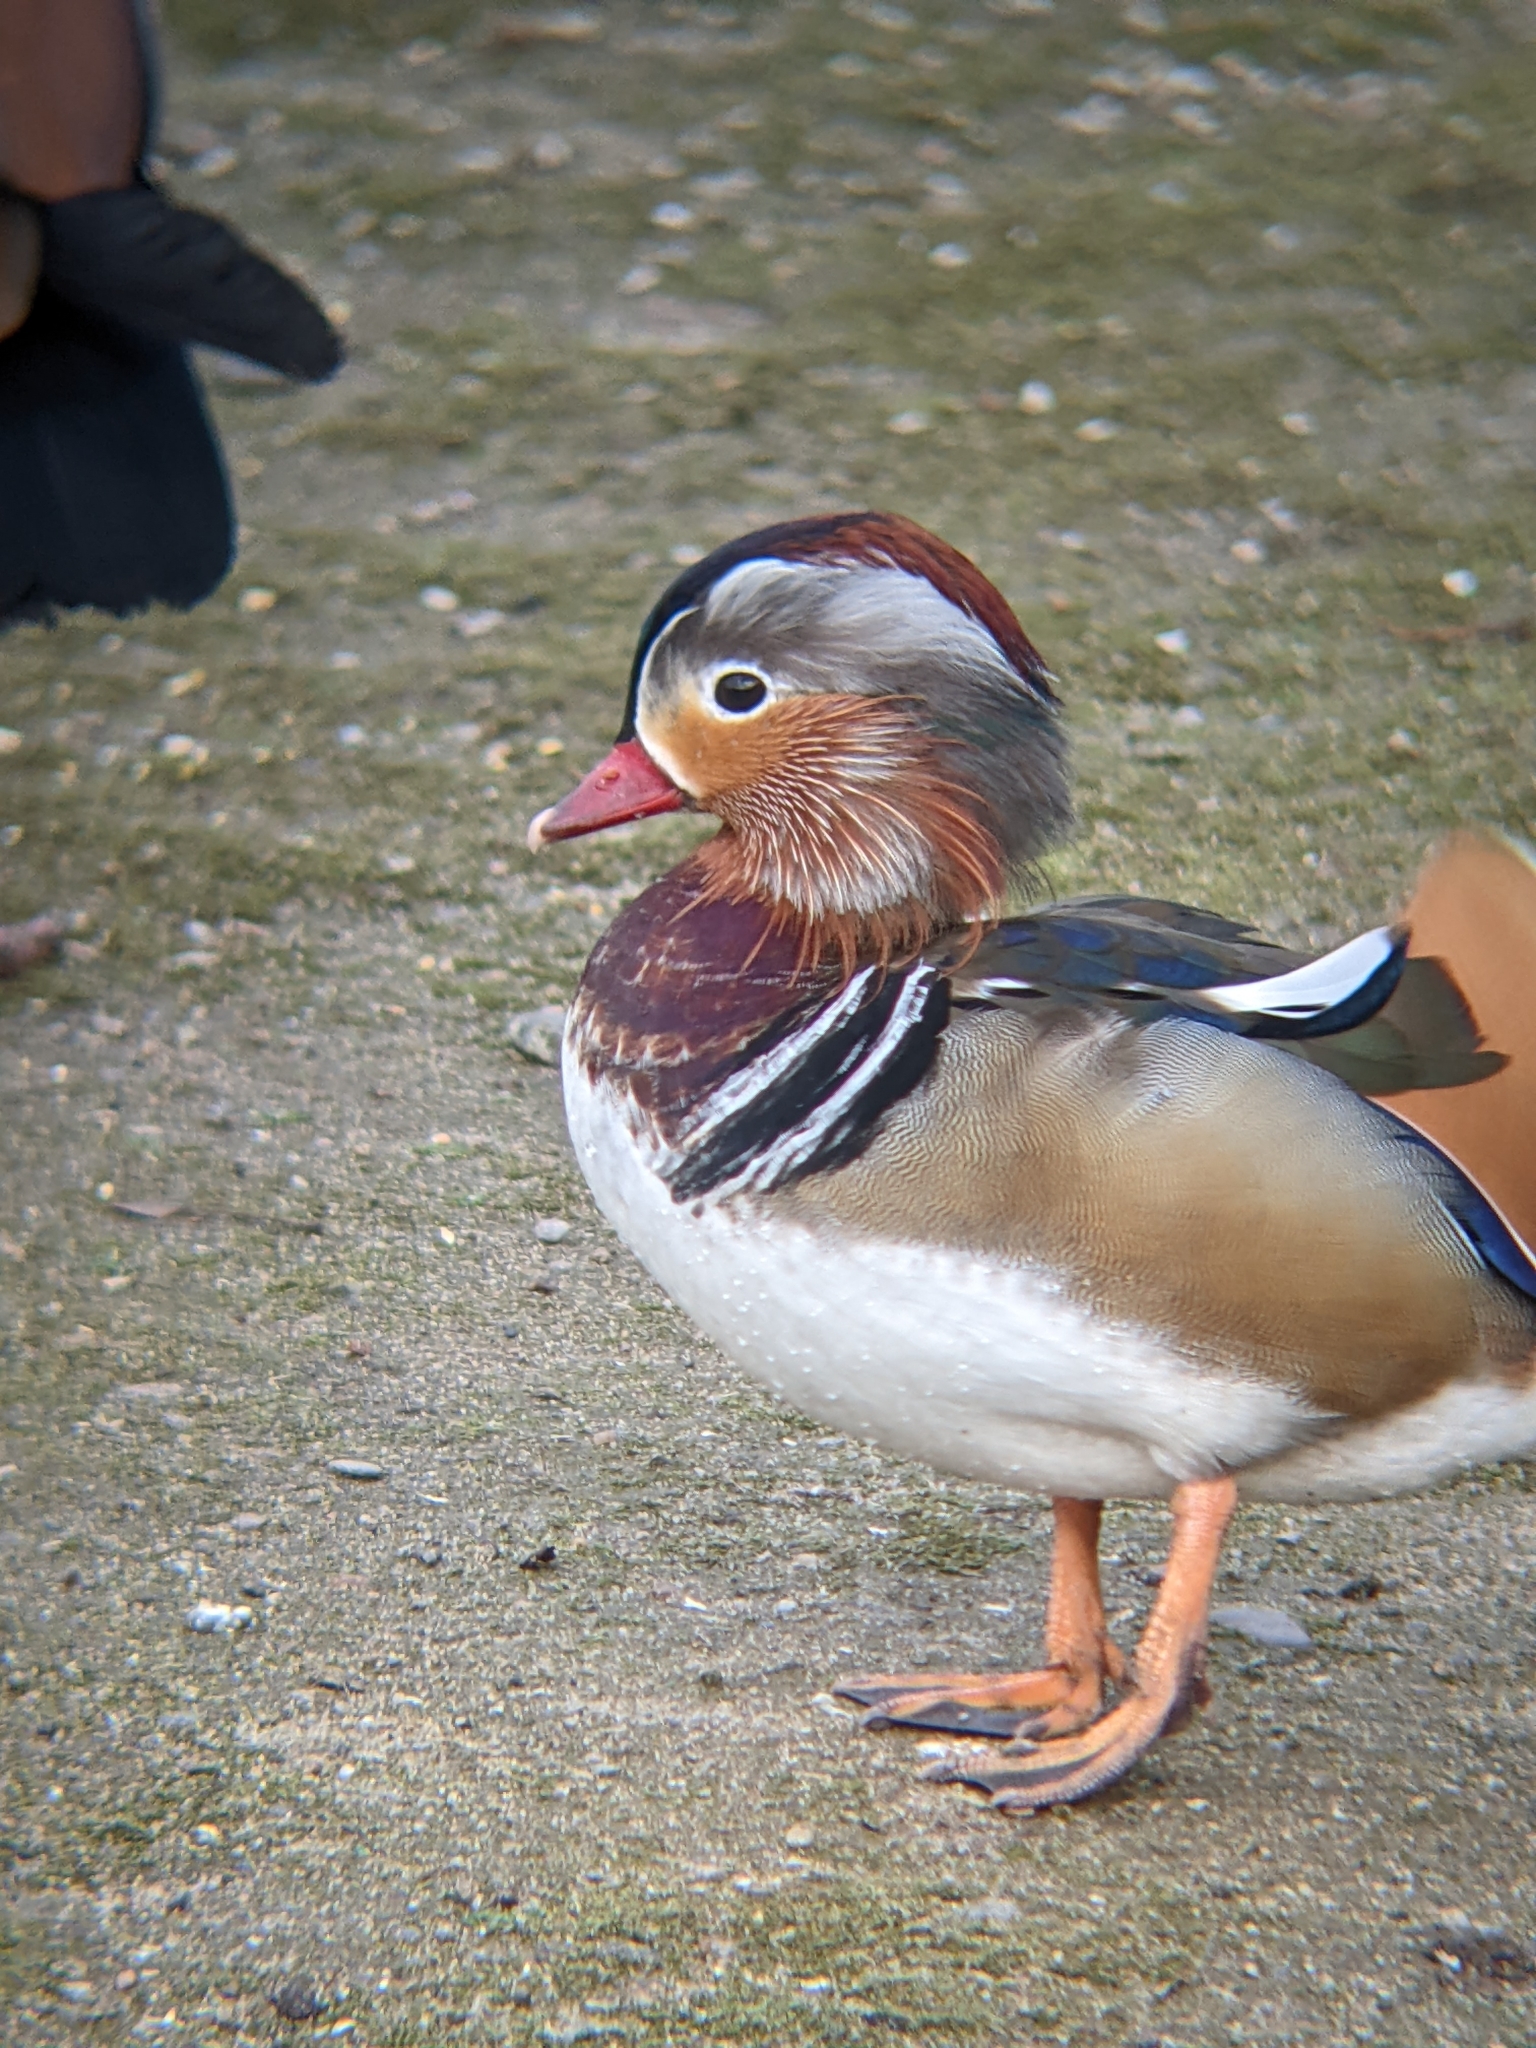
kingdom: Animalia
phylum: Chordata
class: Aves
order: Anseriformes
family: Anatidae
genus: Aix
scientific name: Aix galericulata
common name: Mandarin duck
